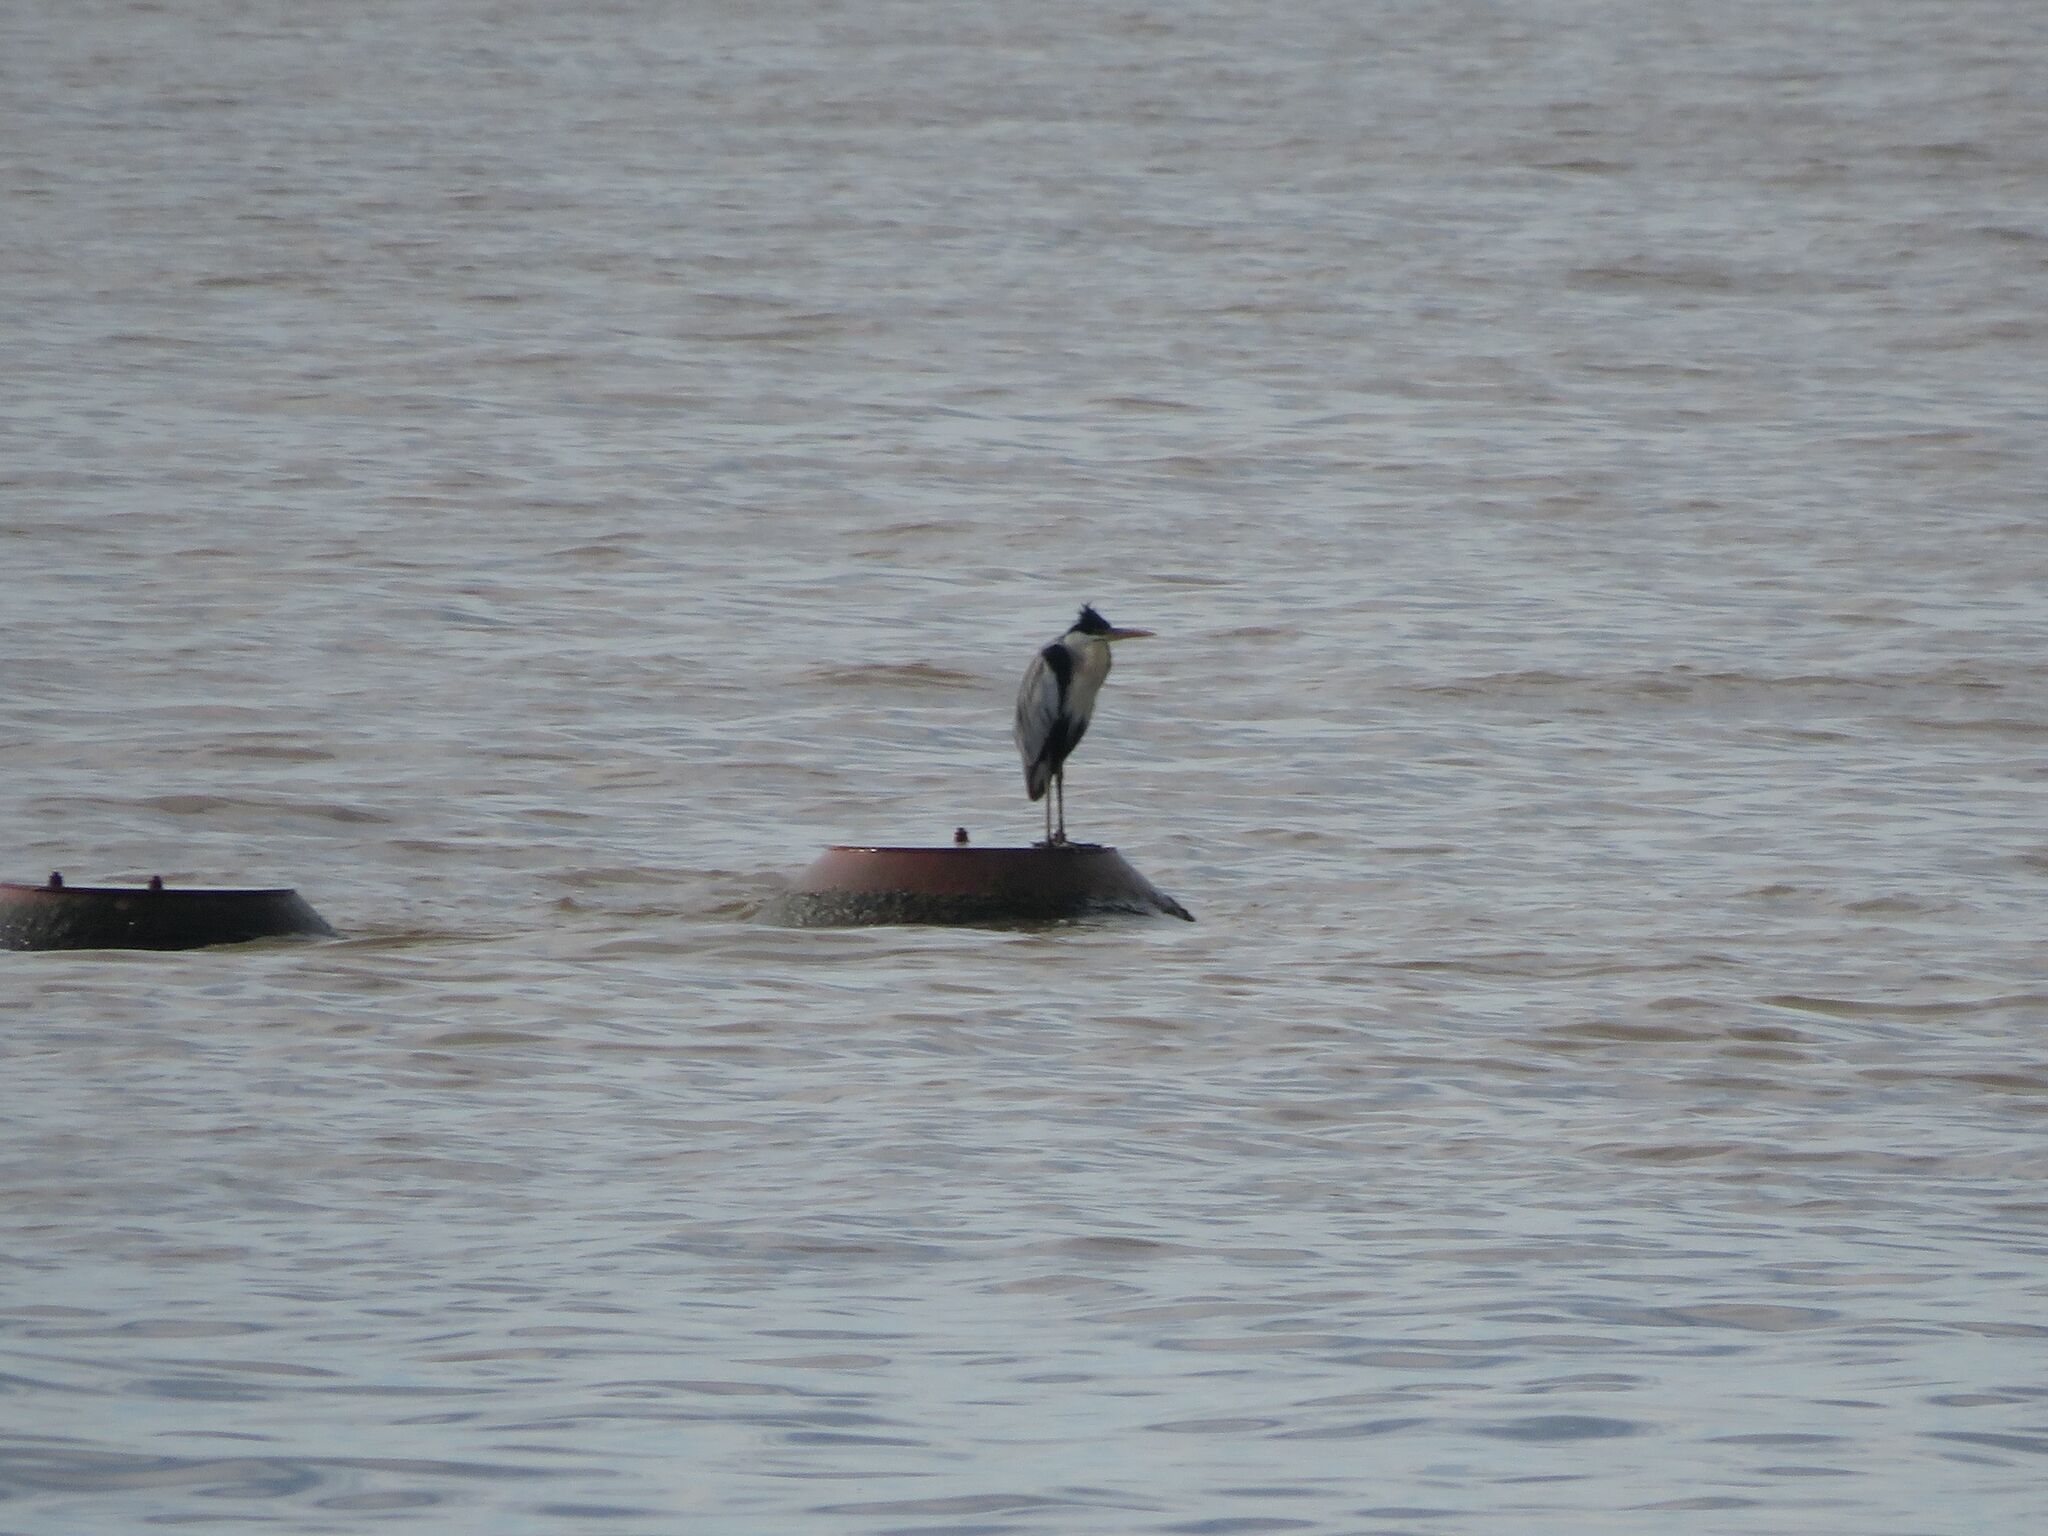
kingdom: Animalia
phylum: Chordata
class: Aves
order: Pelecaniformes
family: Ardeidae
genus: Ardea
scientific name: Ardea cocoi
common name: Cocoi heron
